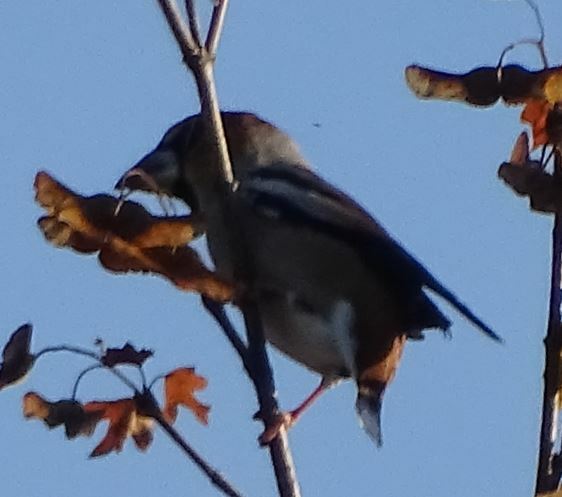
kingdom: Animalia
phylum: Chordata
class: Aves
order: Passeriformes
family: Fringillidae
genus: Coccothraustes
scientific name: Coccothraustes coccothraustes
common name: Hawfinch
